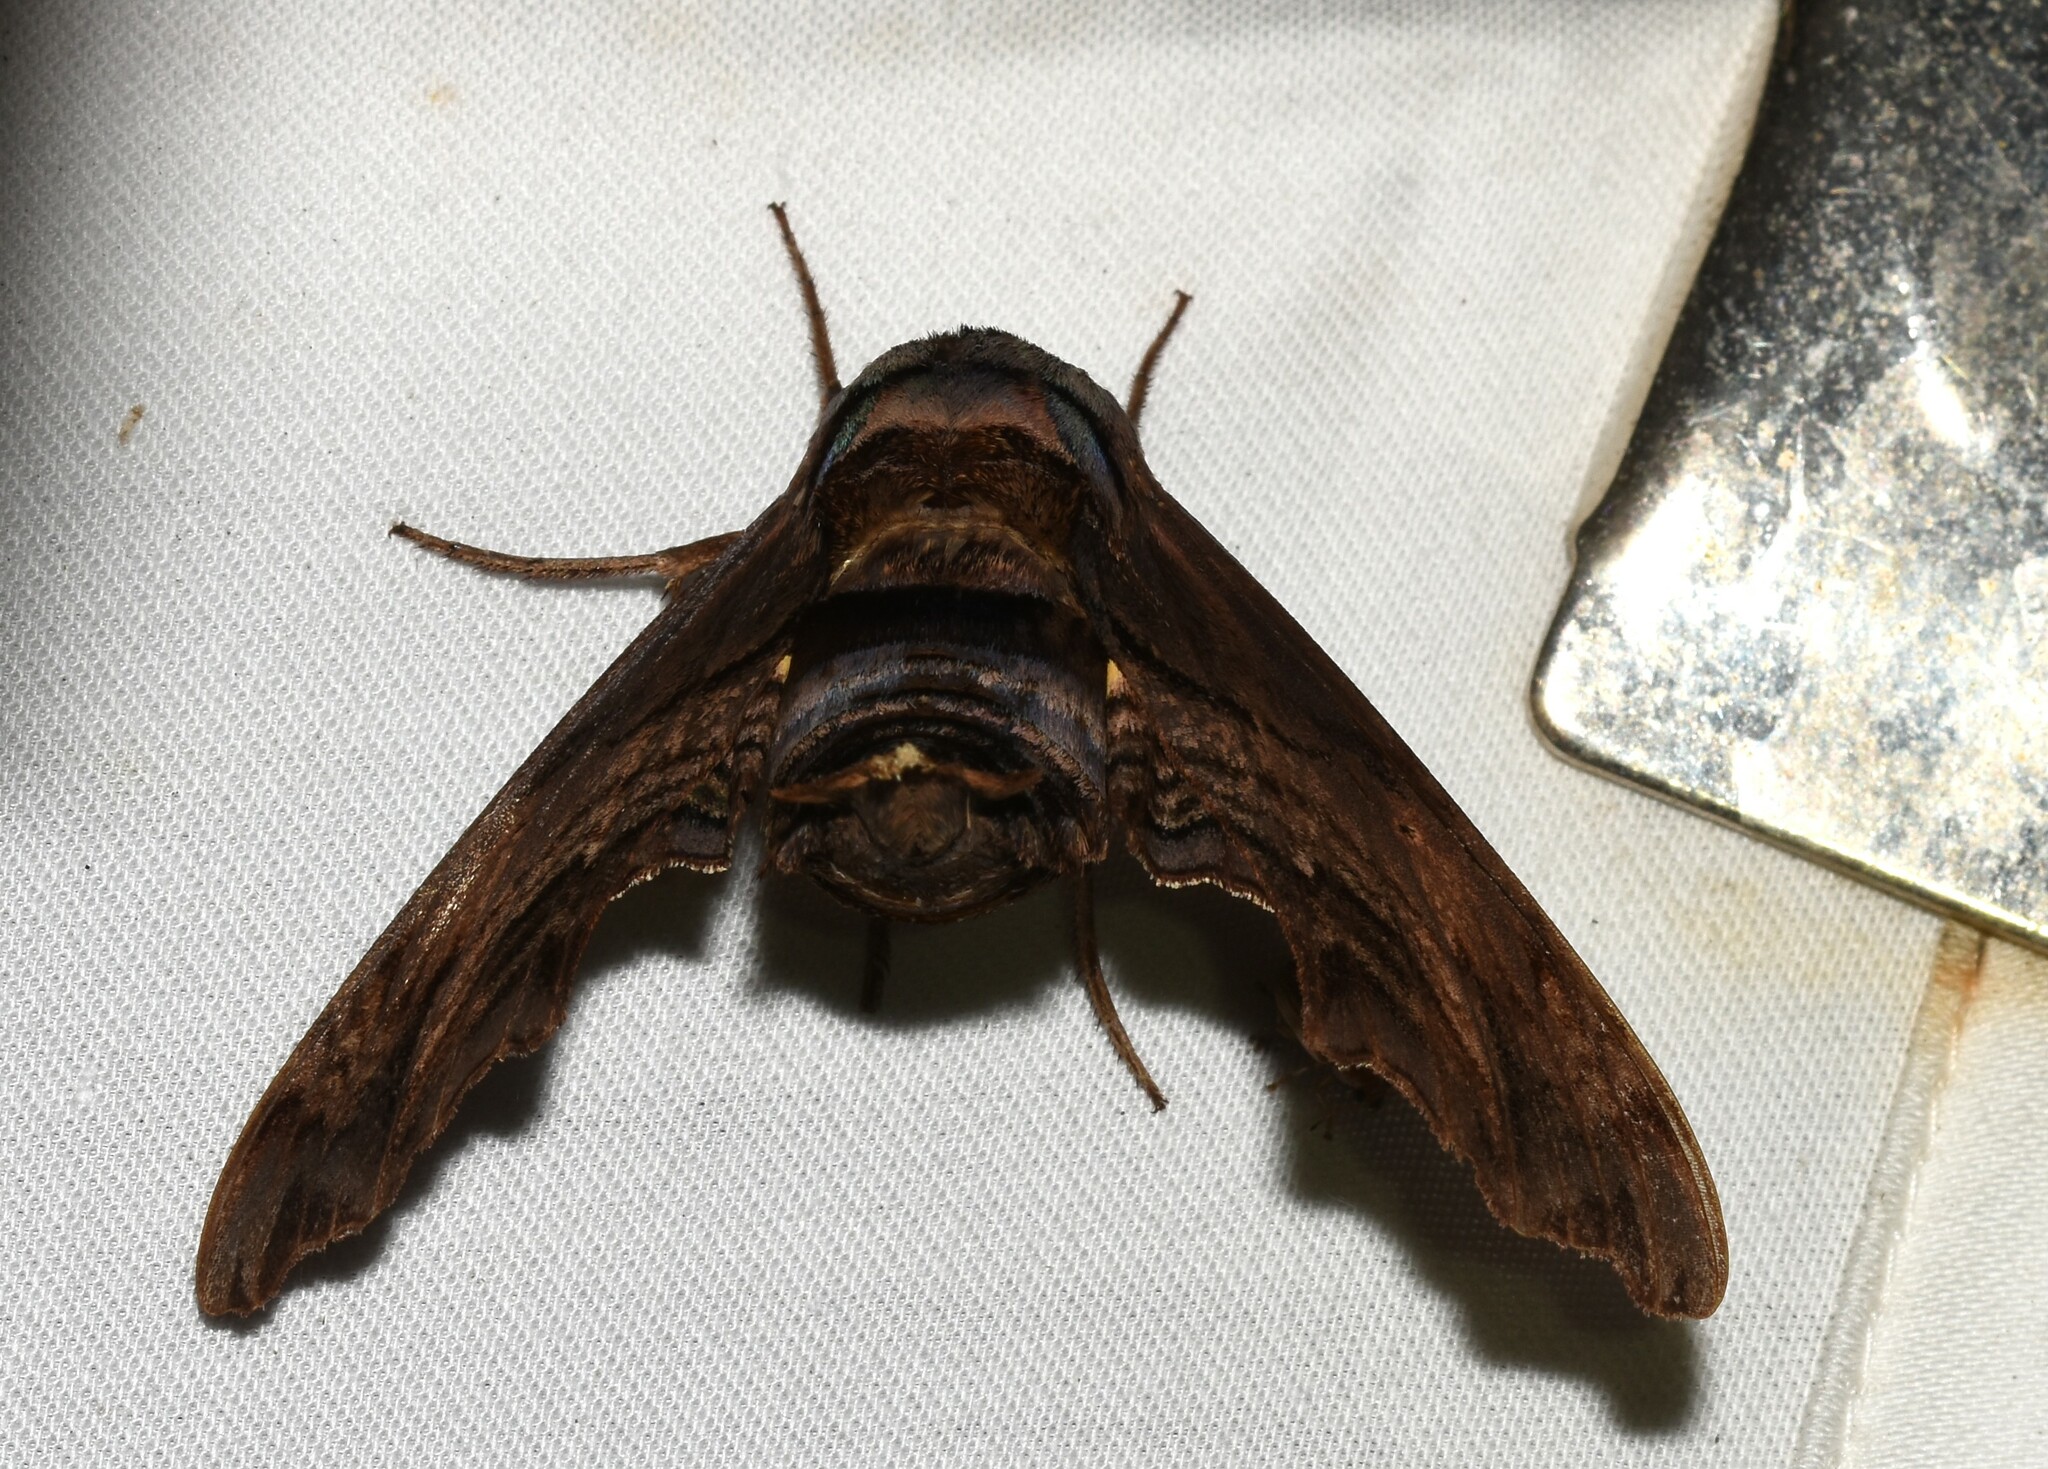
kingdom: Animalia
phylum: Arthropoda
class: Insecta
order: Lepidoptera
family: Sphingidae
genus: Sphecodina
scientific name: Sphecodina abbottii
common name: Abbott's sphinx
